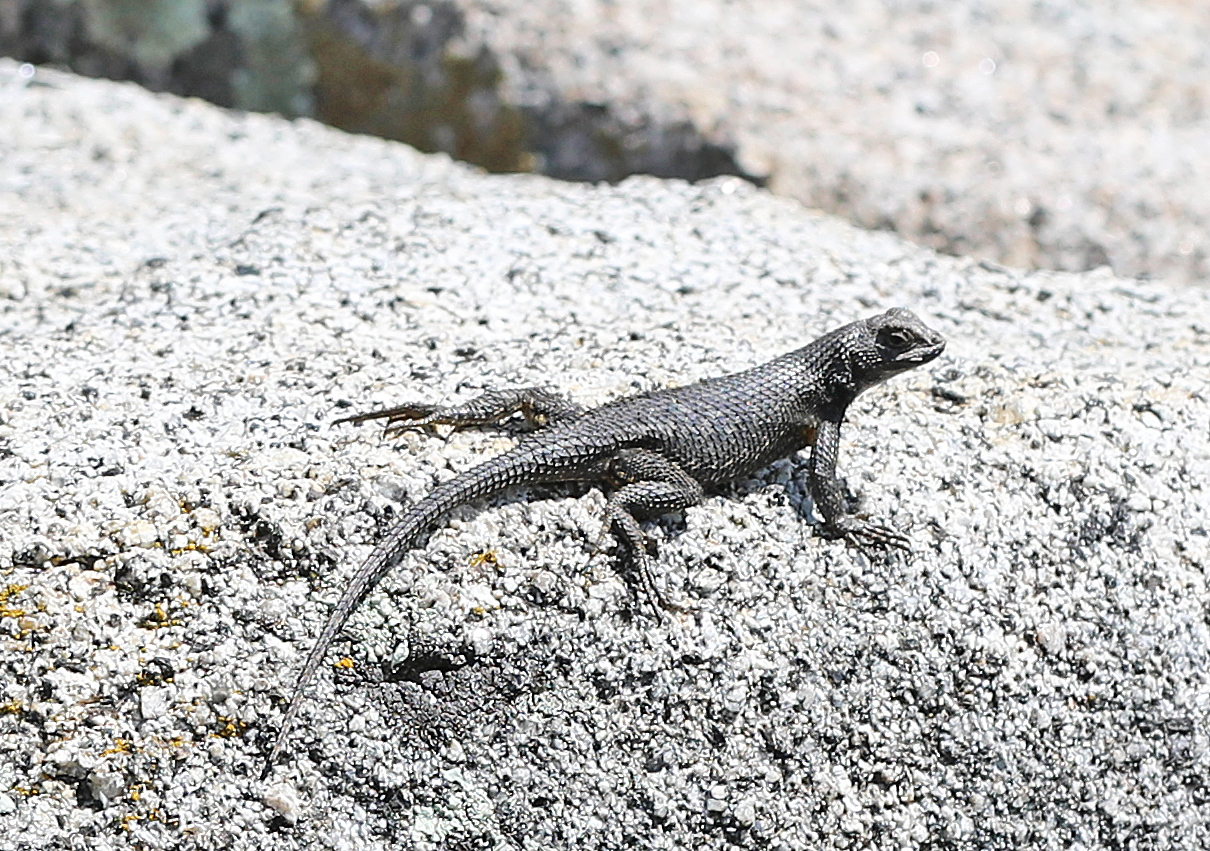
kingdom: Animalia
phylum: Chordata
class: Squamata
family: Phrynosomatidae
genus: Sceloporus
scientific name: Sceloporus occidentalis
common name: Western fence lizard
